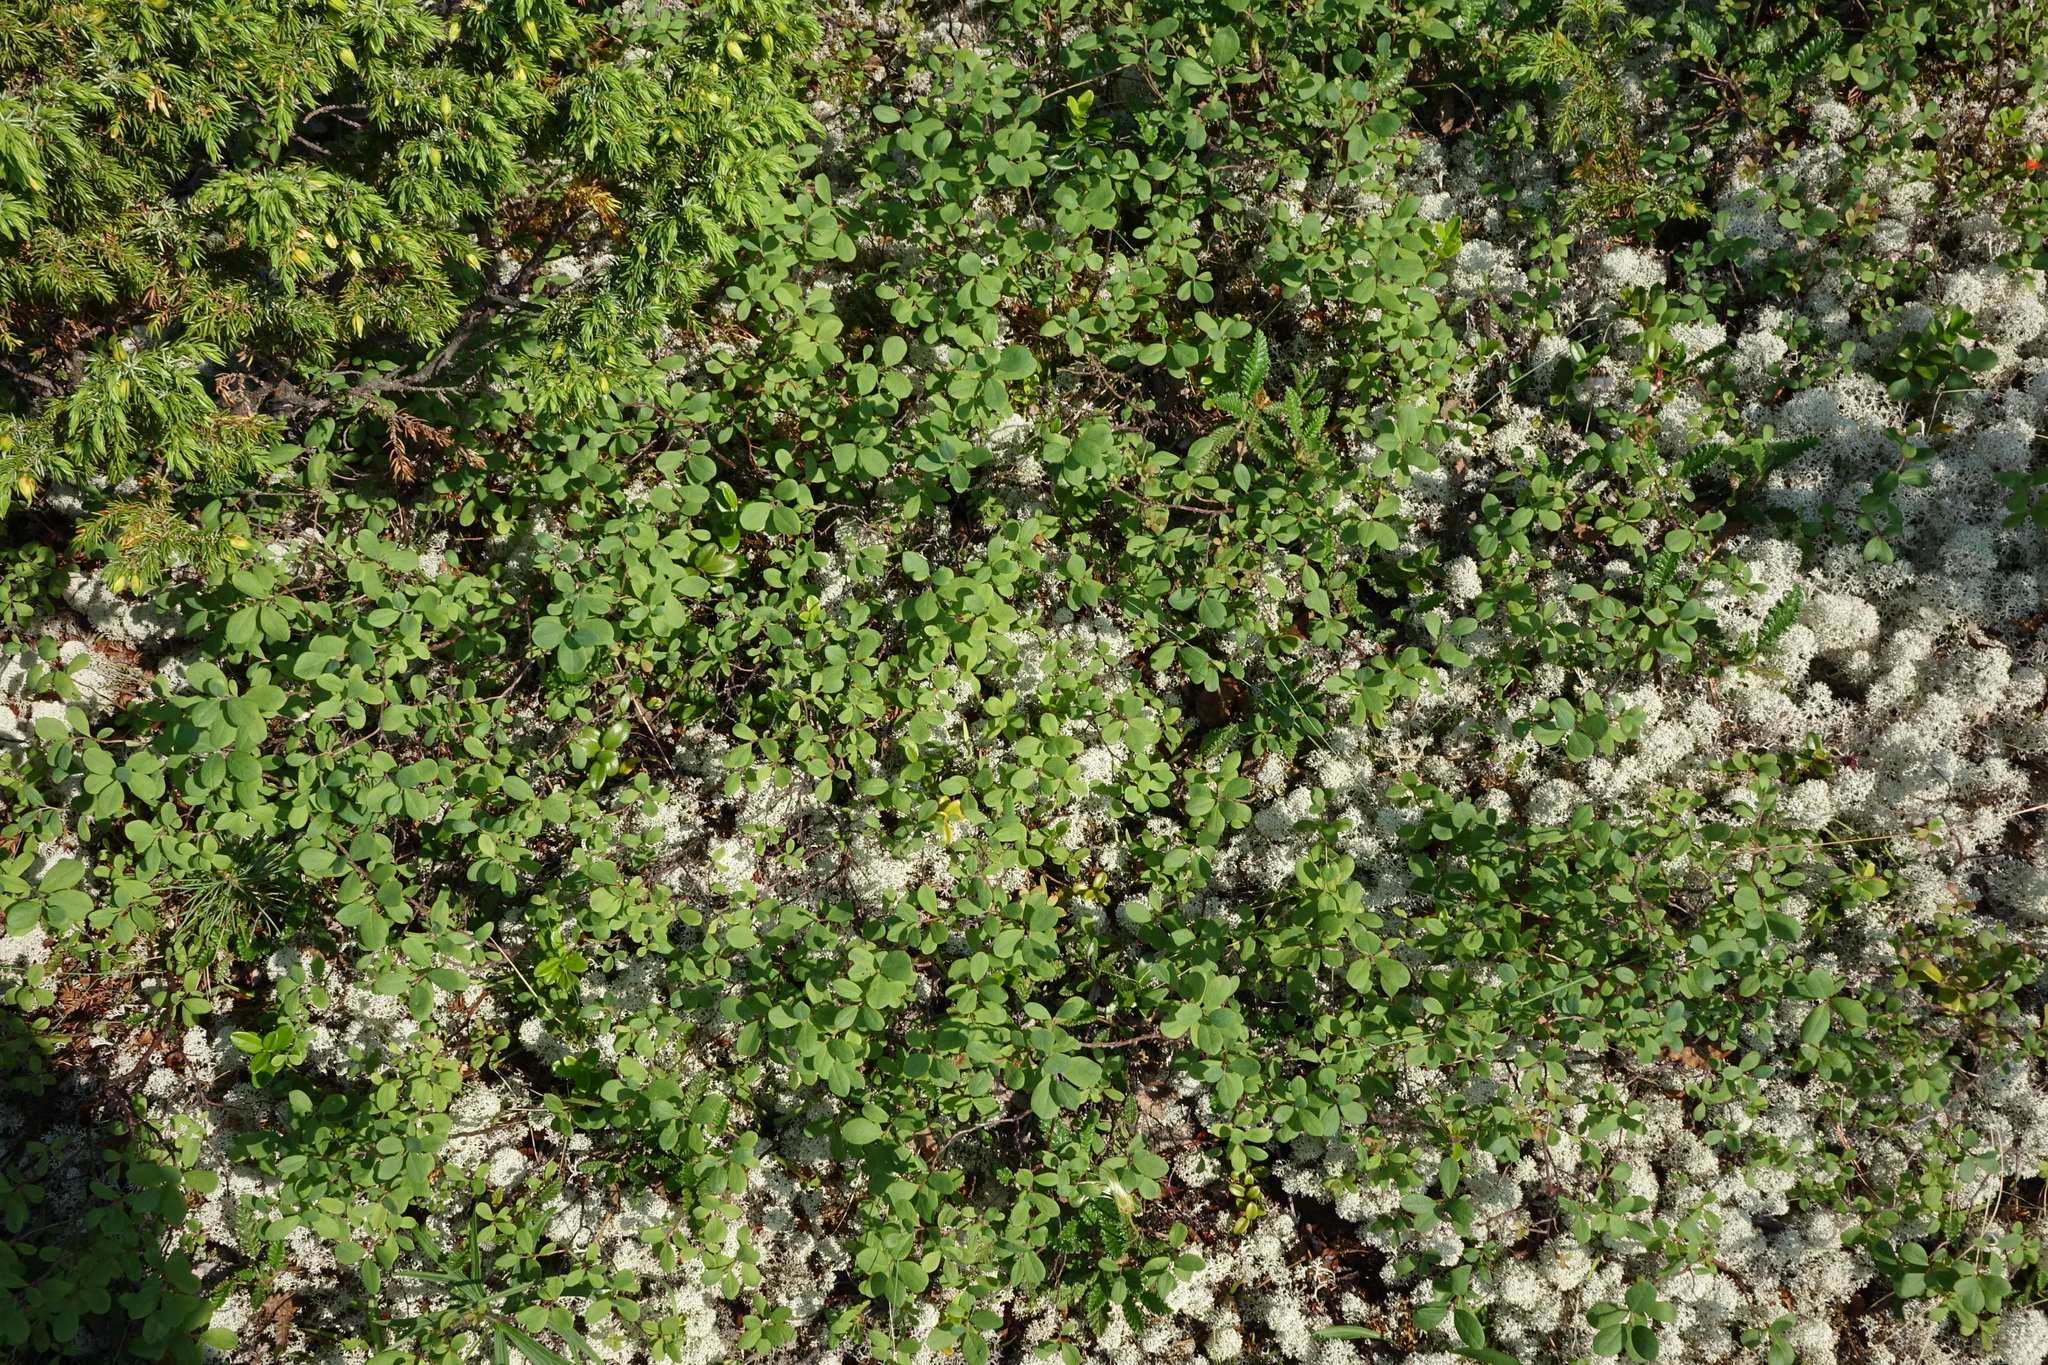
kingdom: Plantae
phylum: Tracheophyta
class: Magnoliopsida
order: Ericales
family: Ericaceae
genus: Vaccinium
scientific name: Vaccinium myrtillus
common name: Bilberry
